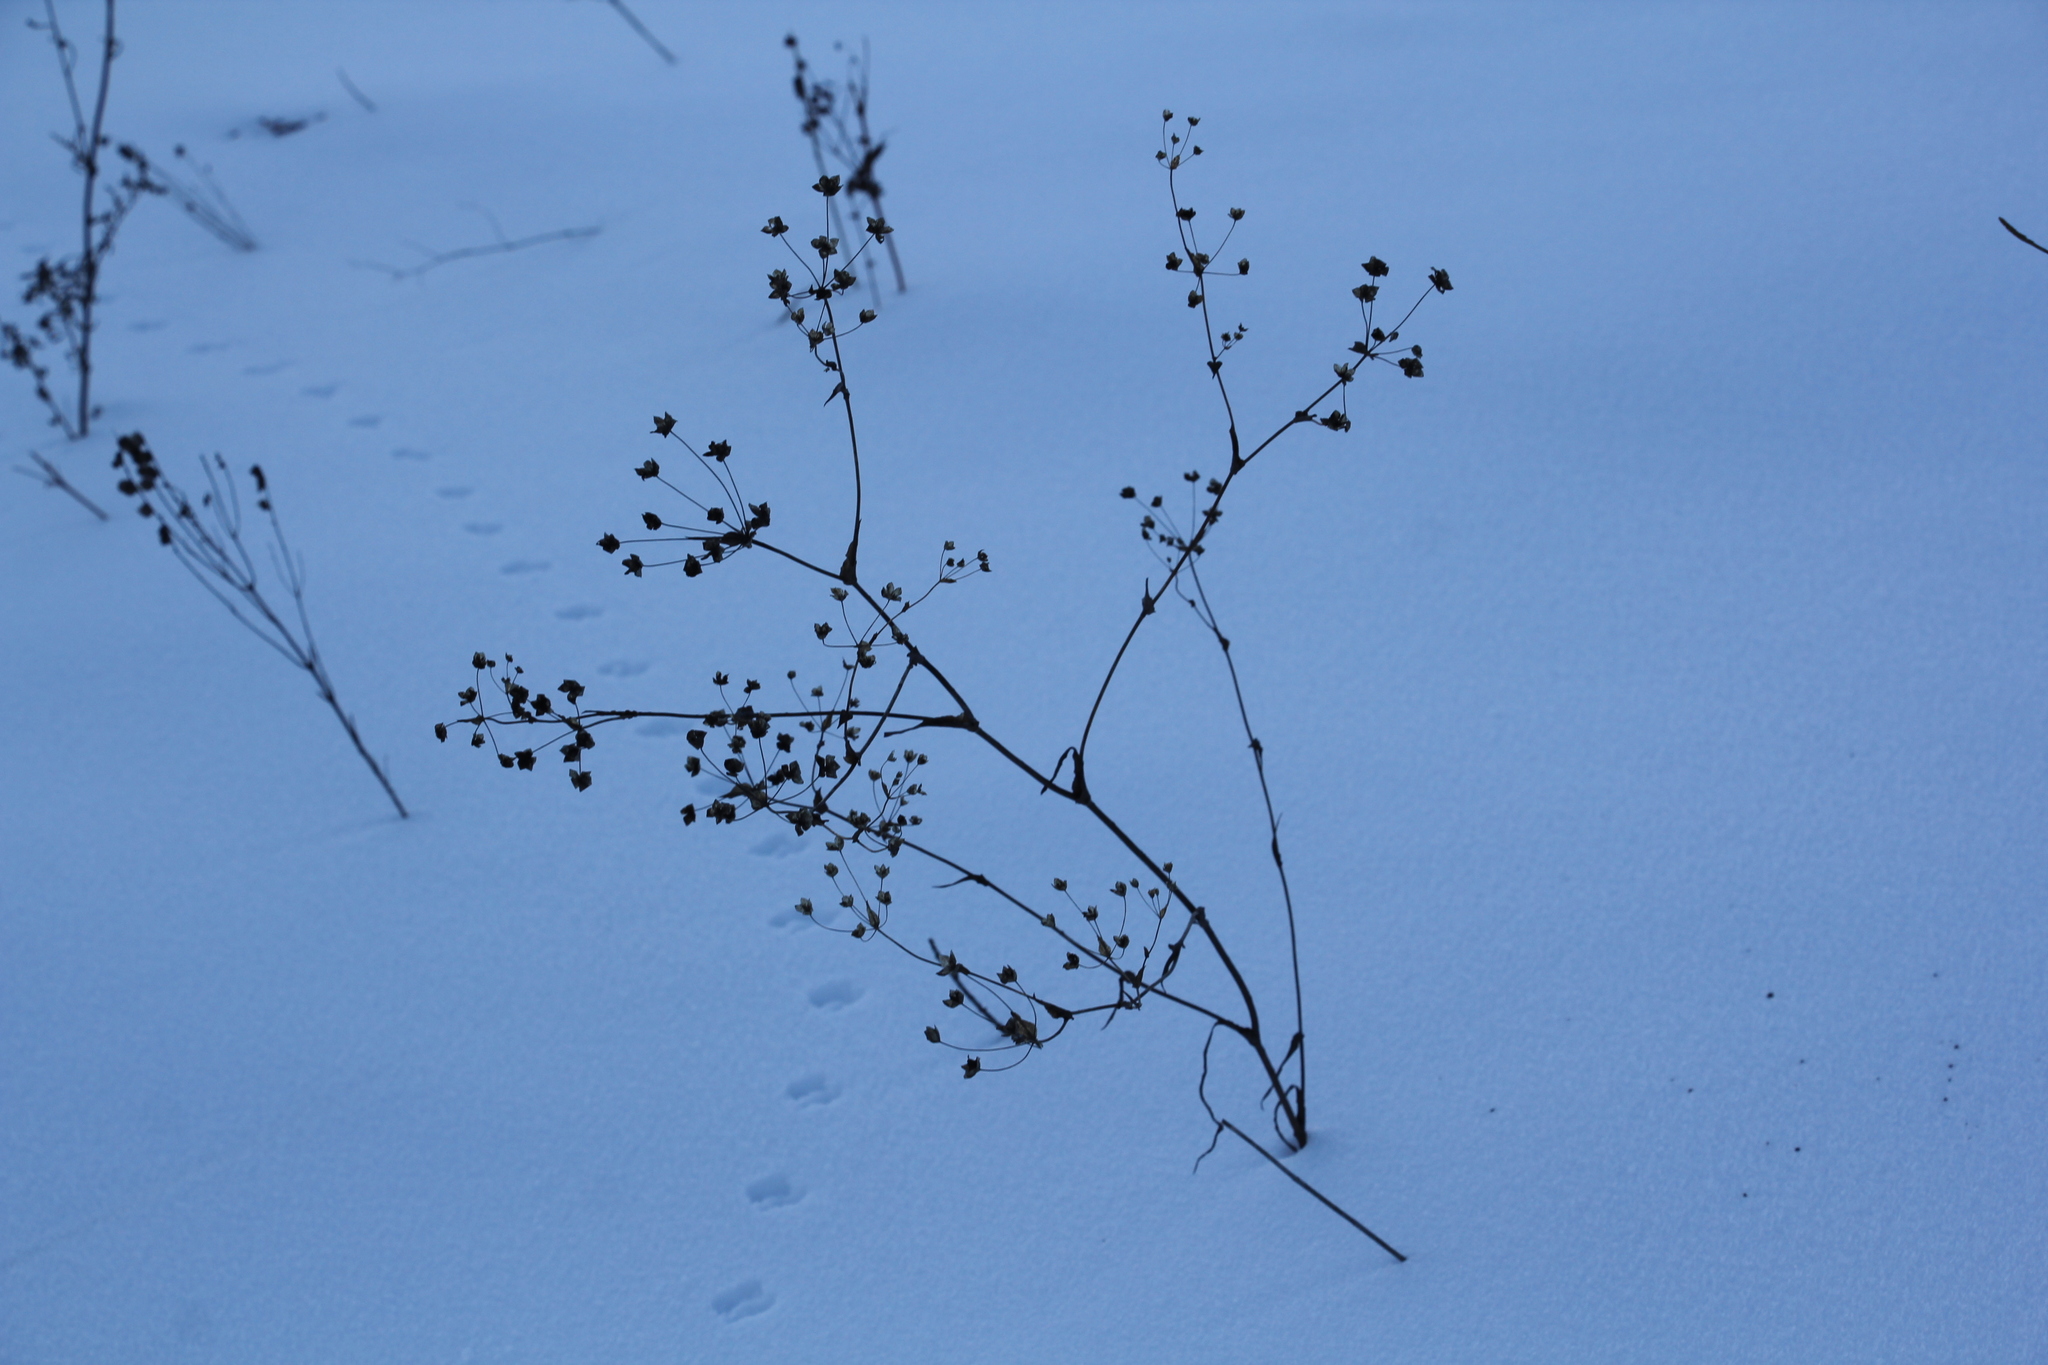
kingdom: Plantae
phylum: Tracheophyta
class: Magnoliopsida
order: Apiales
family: Apiaceae
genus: Bupleurum
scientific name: Bupleurum multinerve
